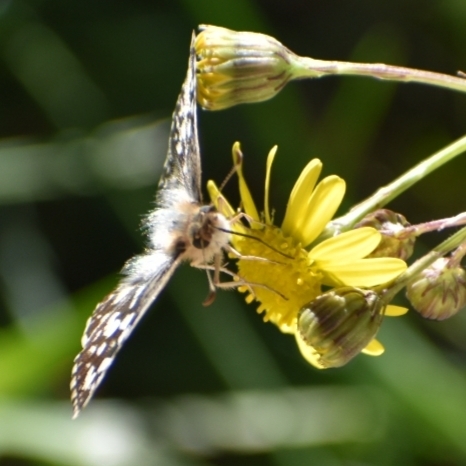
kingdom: Animalia
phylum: Arthropoda
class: Insecta
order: Lepidoptera
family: Hesperiidae
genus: Heliopetes
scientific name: Heliopetes americanus
